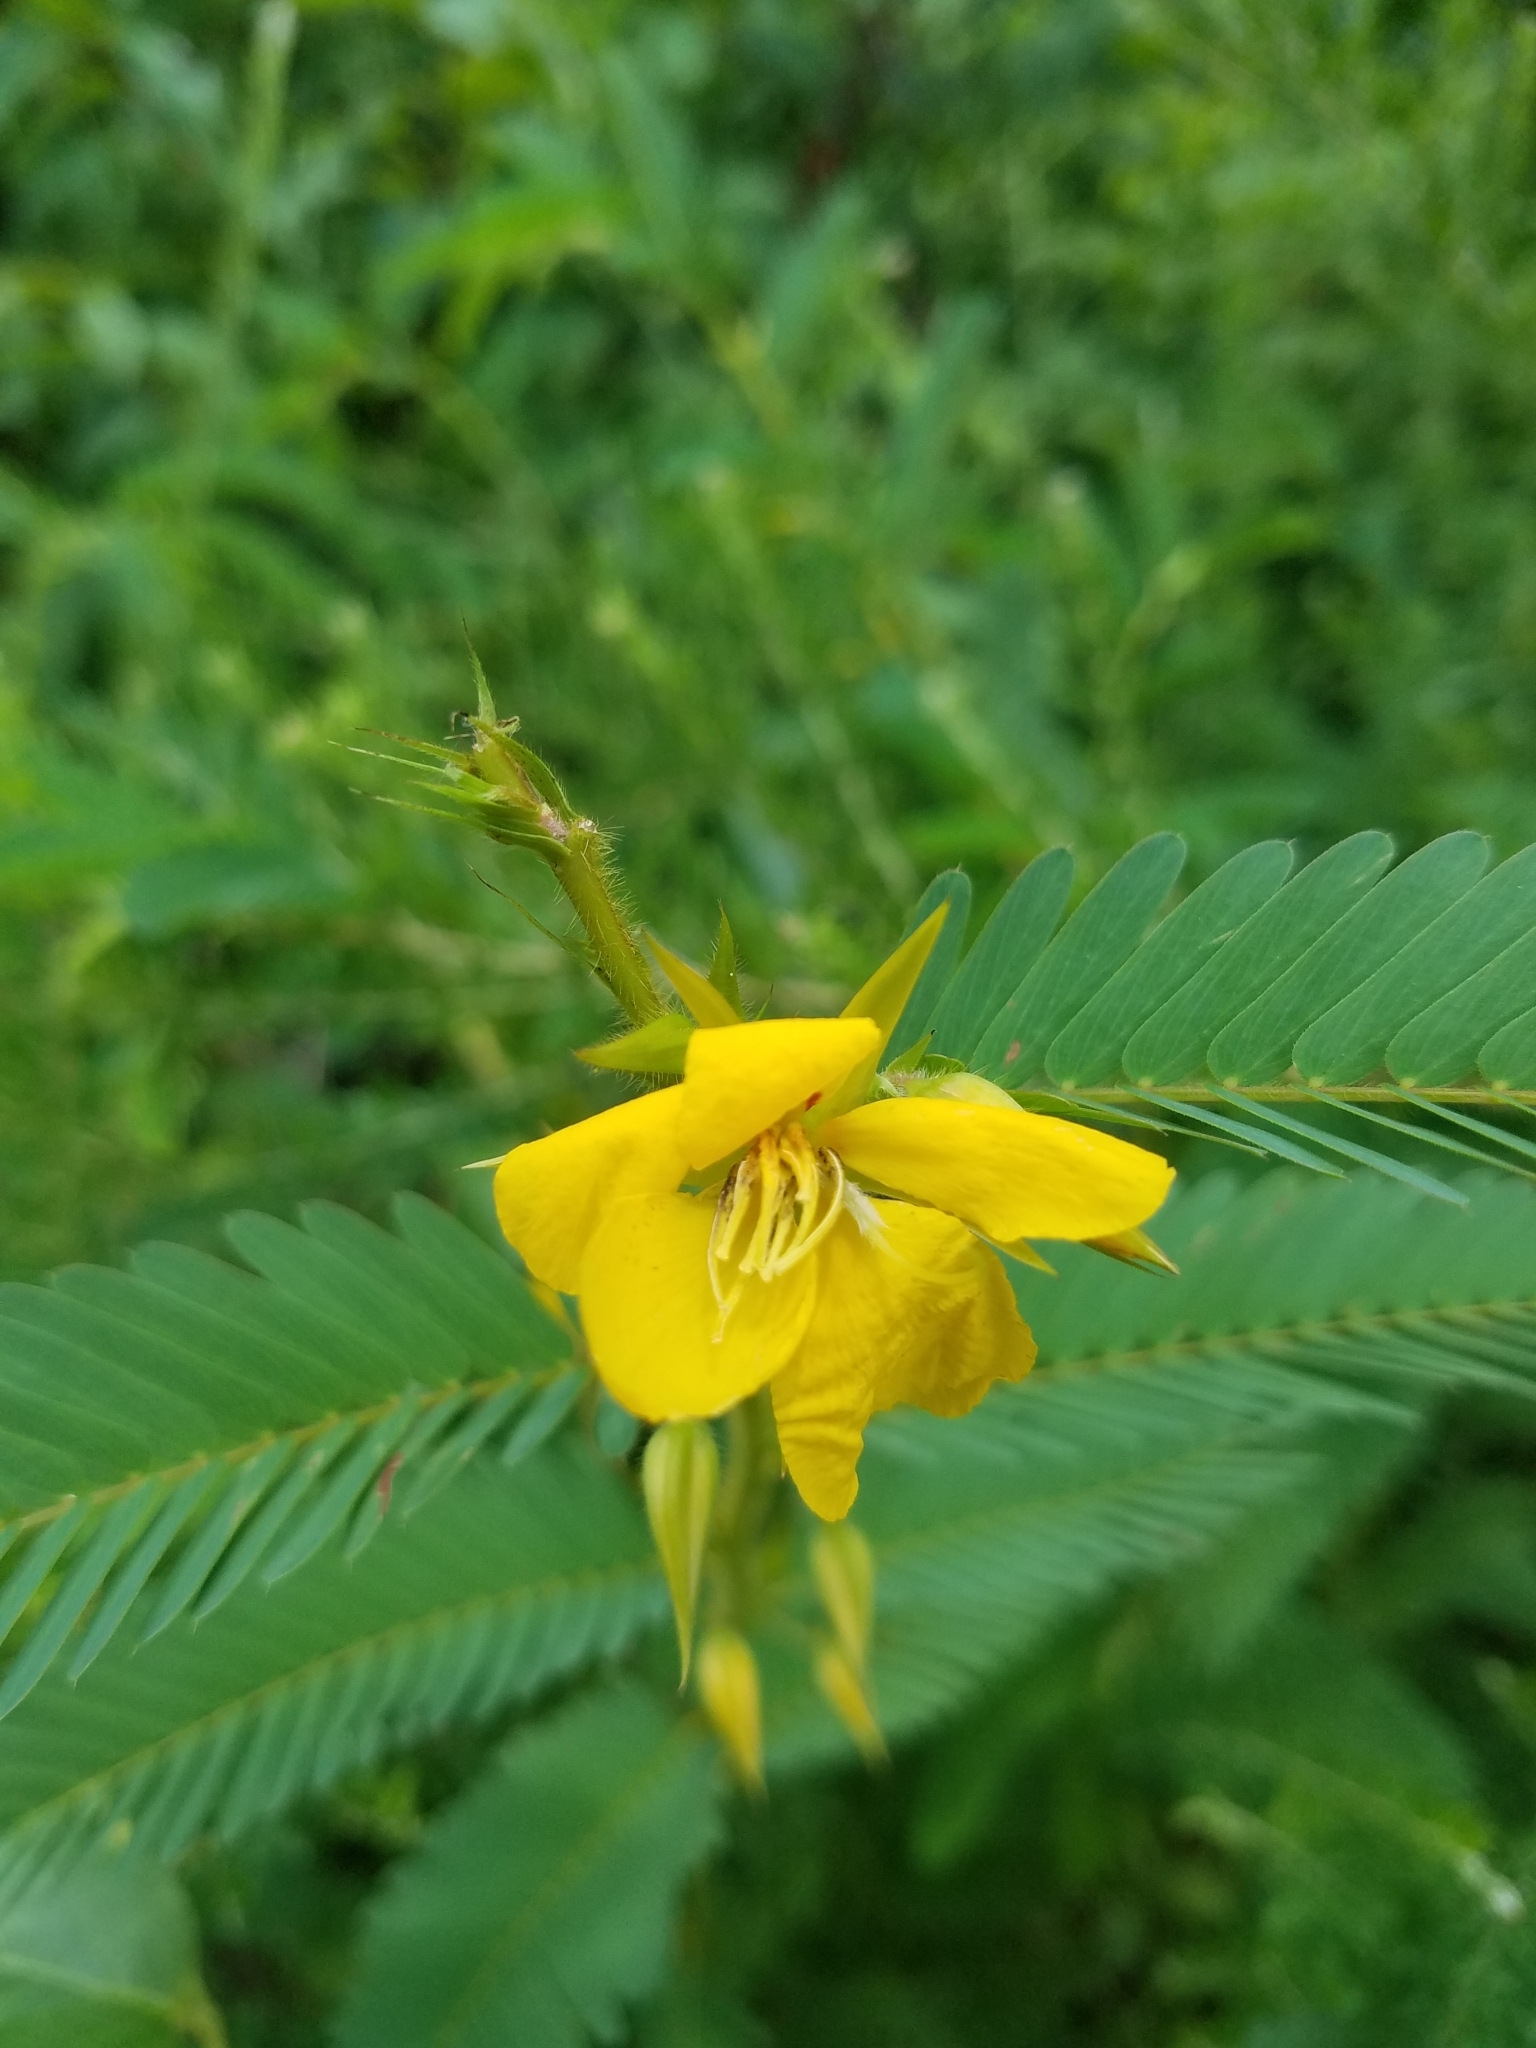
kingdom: Plantae
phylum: Tracheophyta
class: Magnoliopsida
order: Fabales
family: Fabaceae
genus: Chamaecrista
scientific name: Chamaecrista fasciculata
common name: Golden cassia
